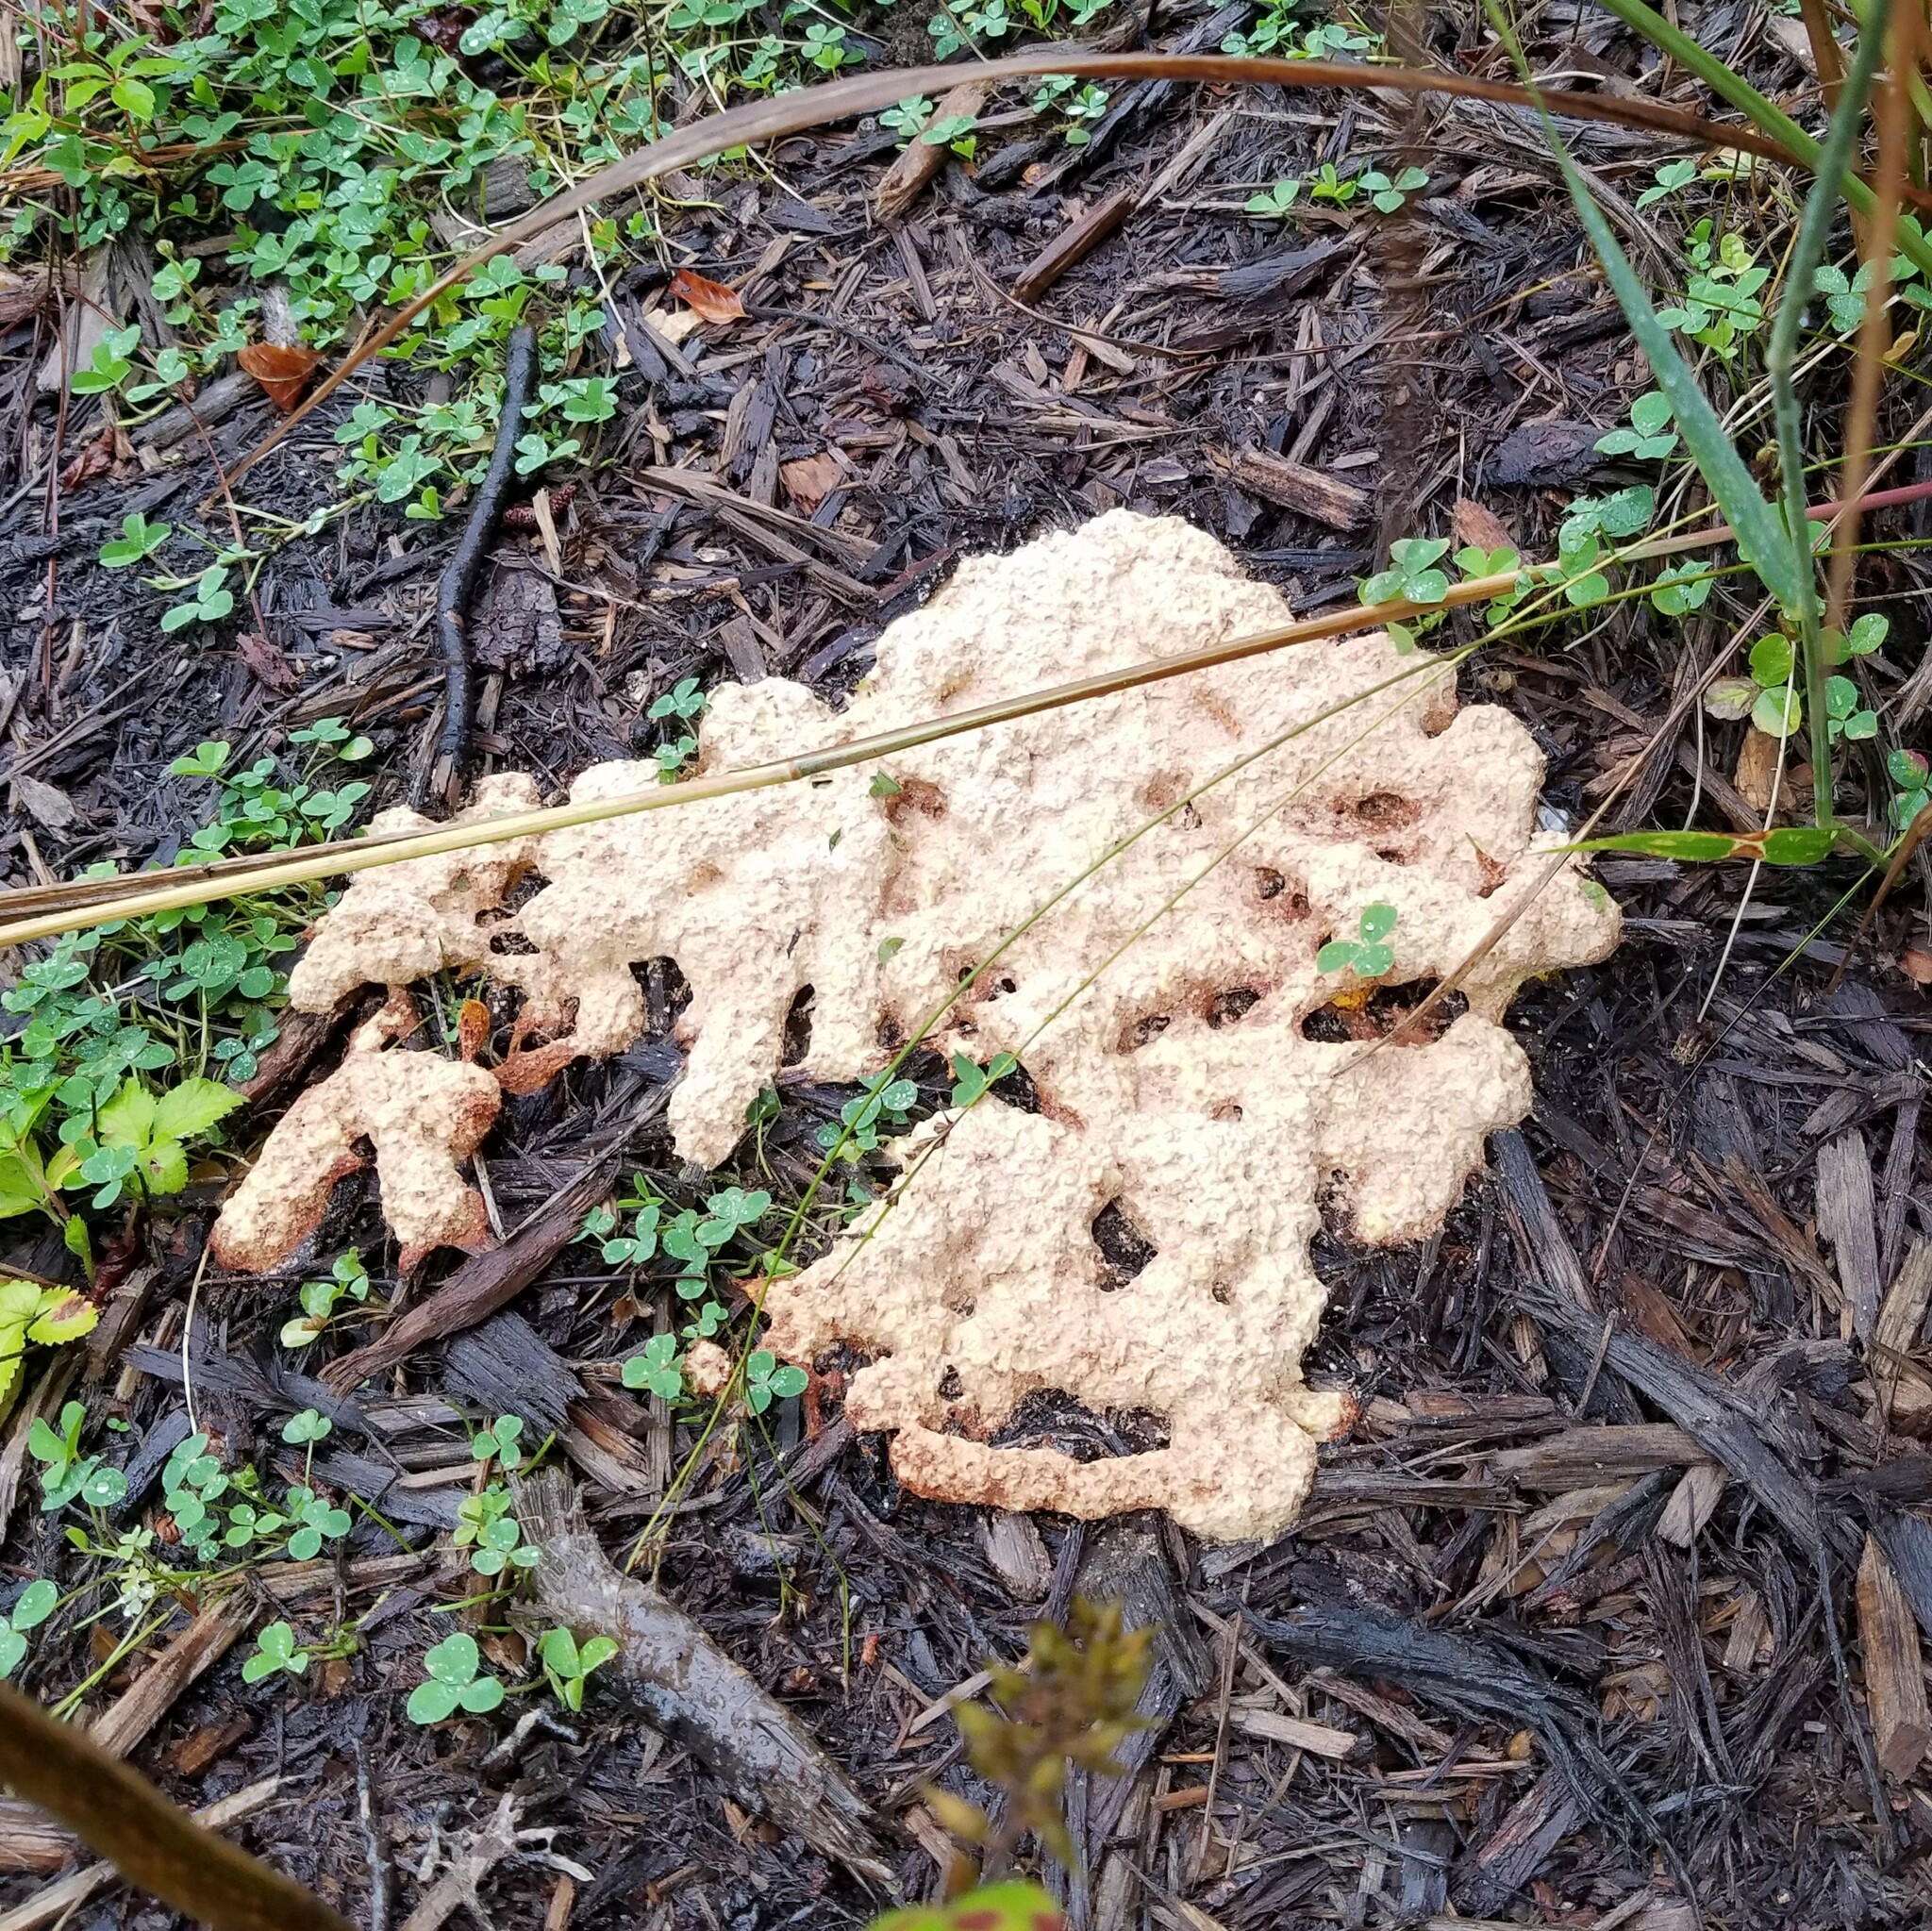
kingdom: Protozoa
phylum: Mycetozoa
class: Myxomycetes
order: Physarales
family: Physaraceae
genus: Fuligo
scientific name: Fuligo septica
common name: Dog vomit slime mold
